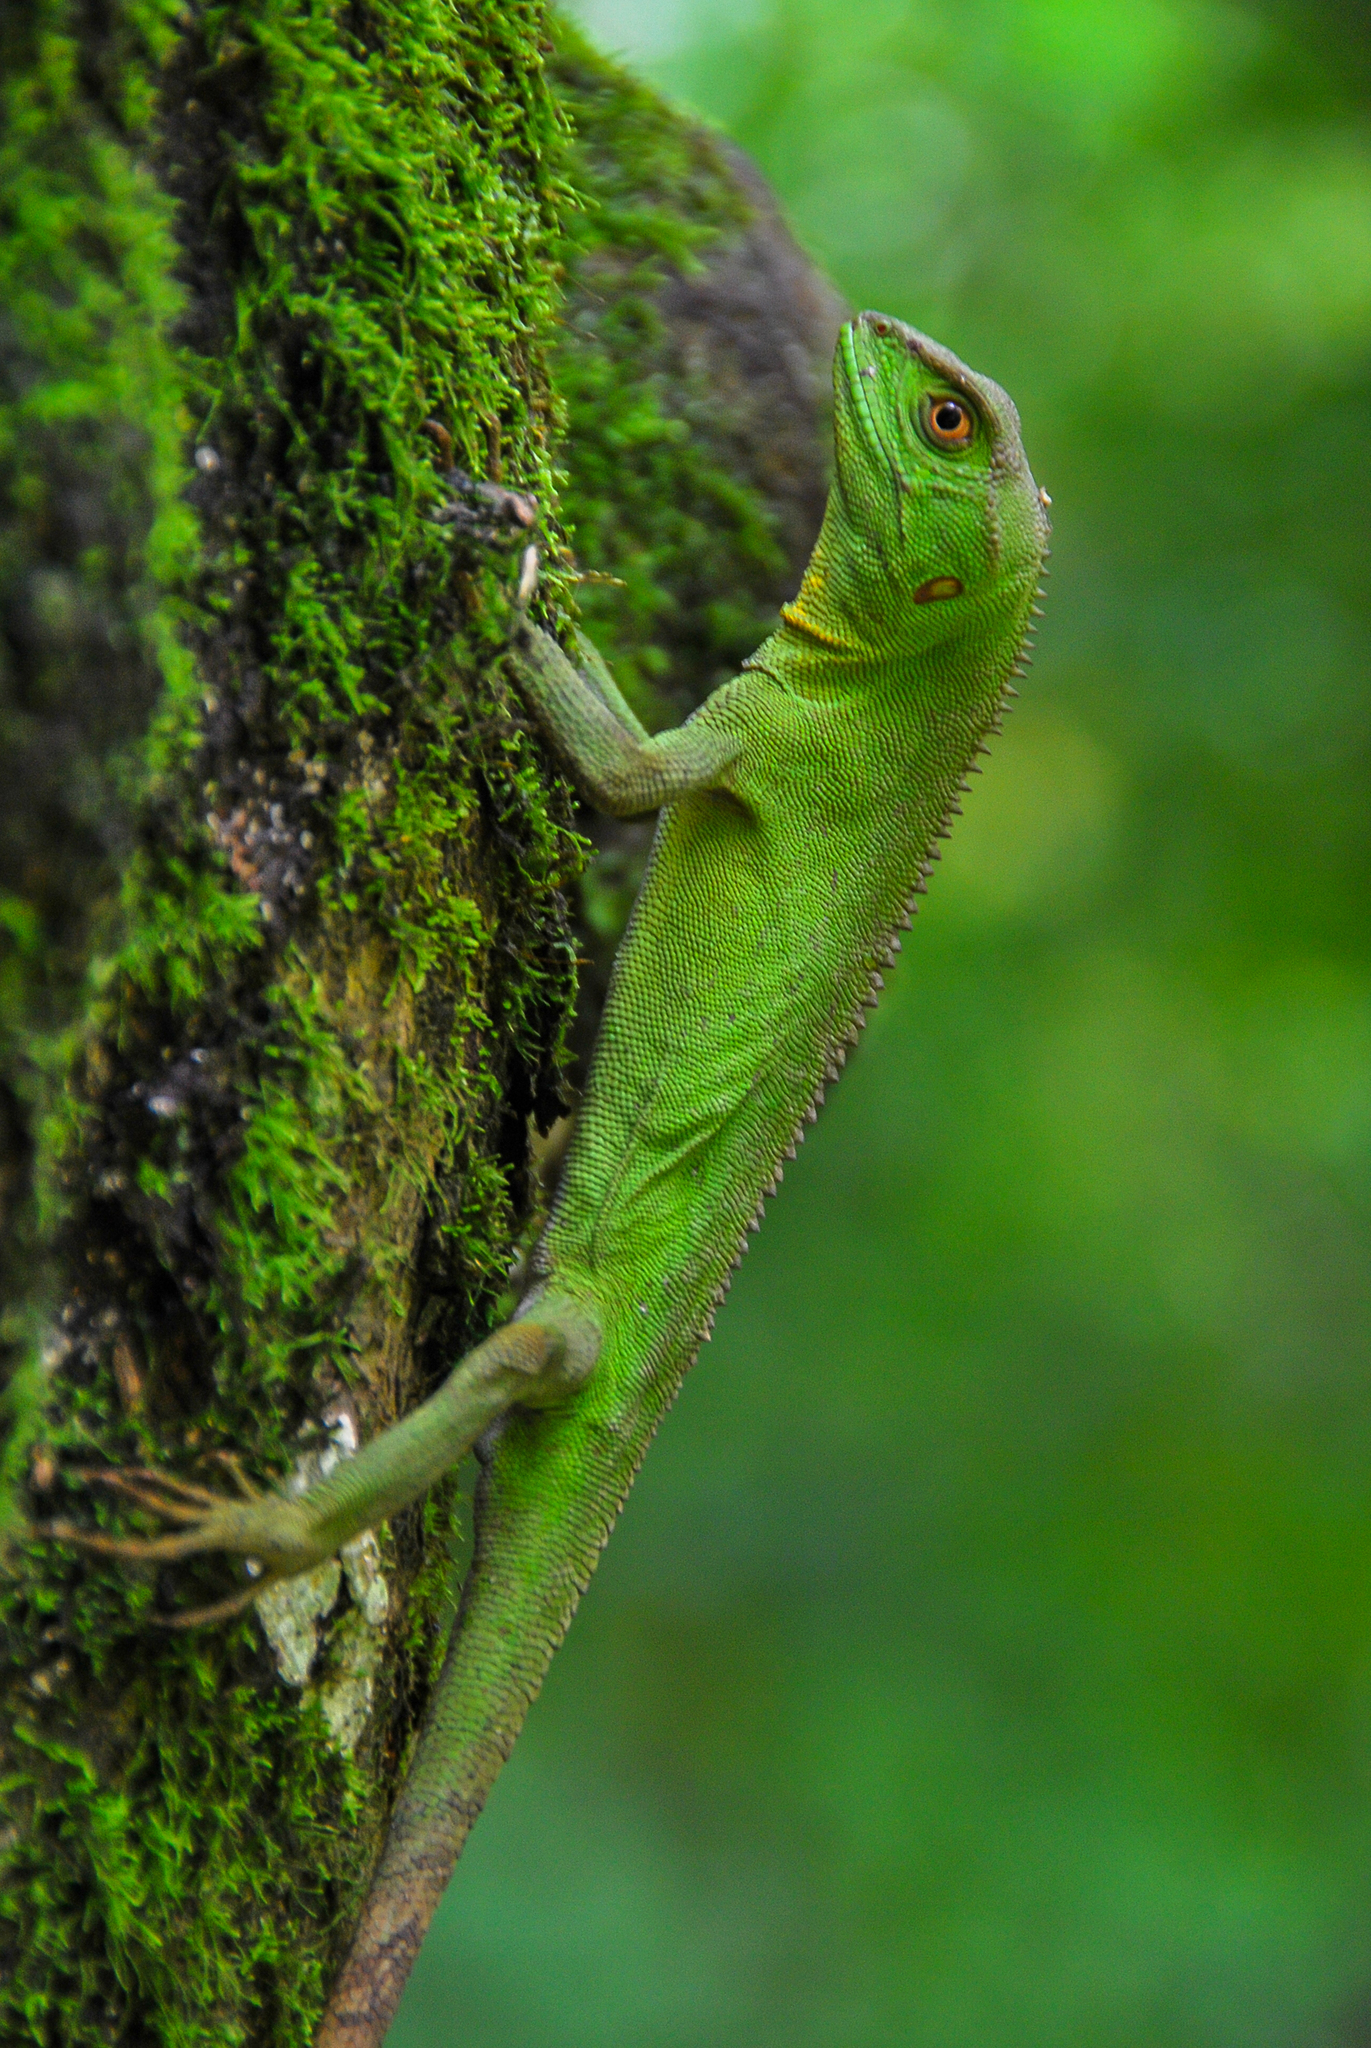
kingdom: Animalia
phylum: Chordata
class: Squamata
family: Leiosauridae
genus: Enyalius
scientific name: Enyalius iheringii
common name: Ihering's fathead anole
